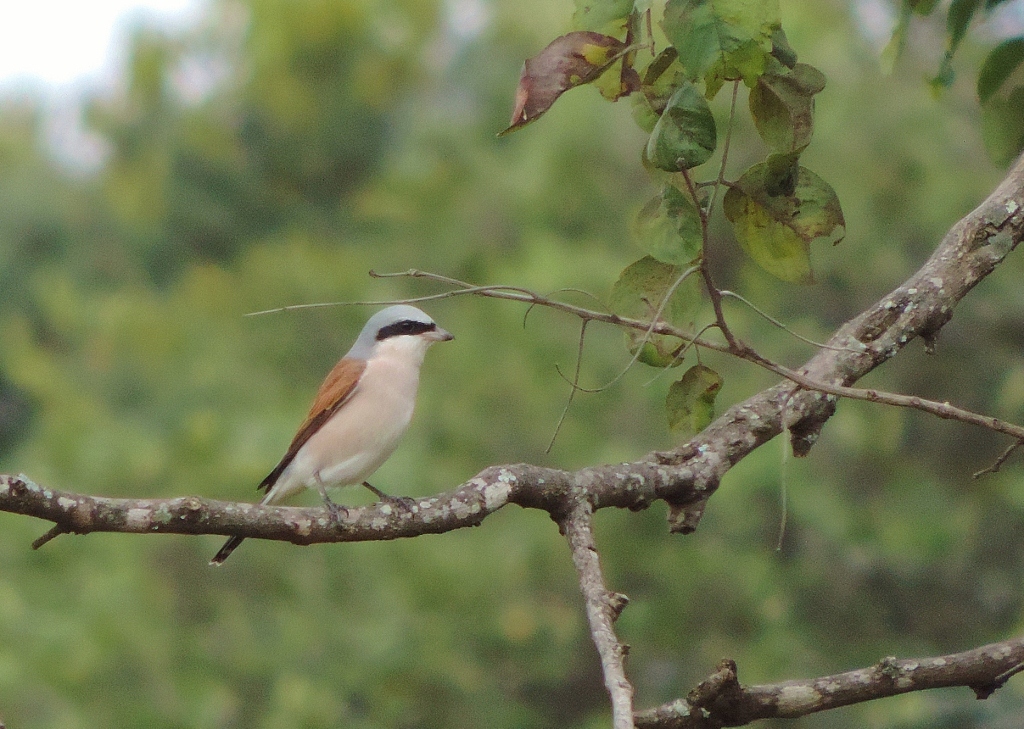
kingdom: Animalia
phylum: Chordata
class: Aves
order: Passeriformes
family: Laniidae
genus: Lanius
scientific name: Lanius collurio
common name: Red-backed shrike
